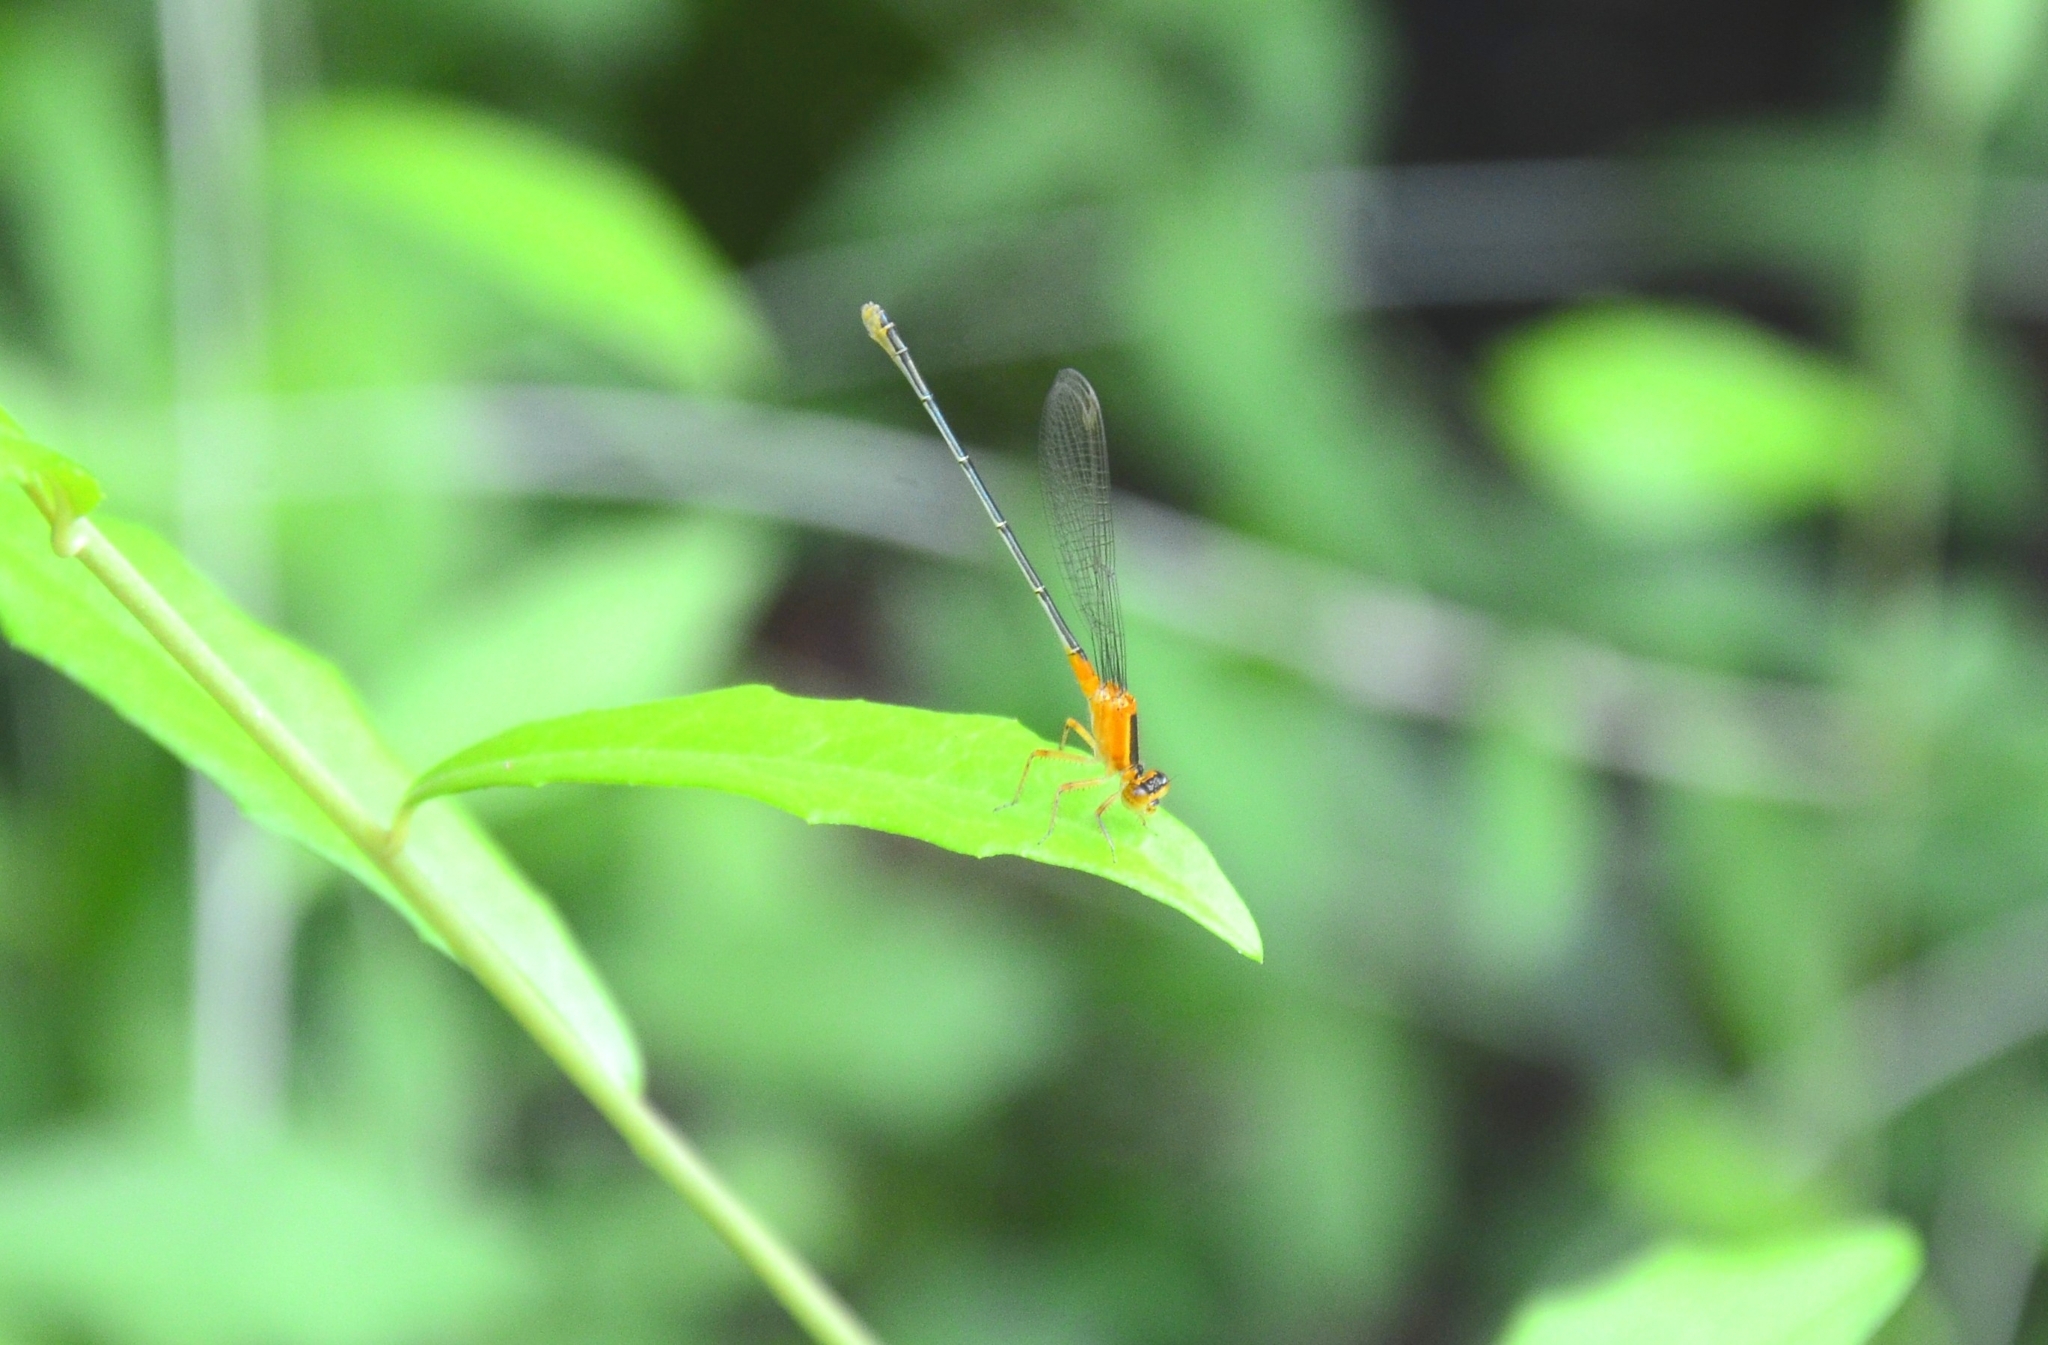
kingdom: Animalia
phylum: Arthropoda
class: Insecta
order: Odonata
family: Coenagrionidae
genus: Ischnura
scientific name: Ischnura senegalensis
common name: Tropical bluetail
